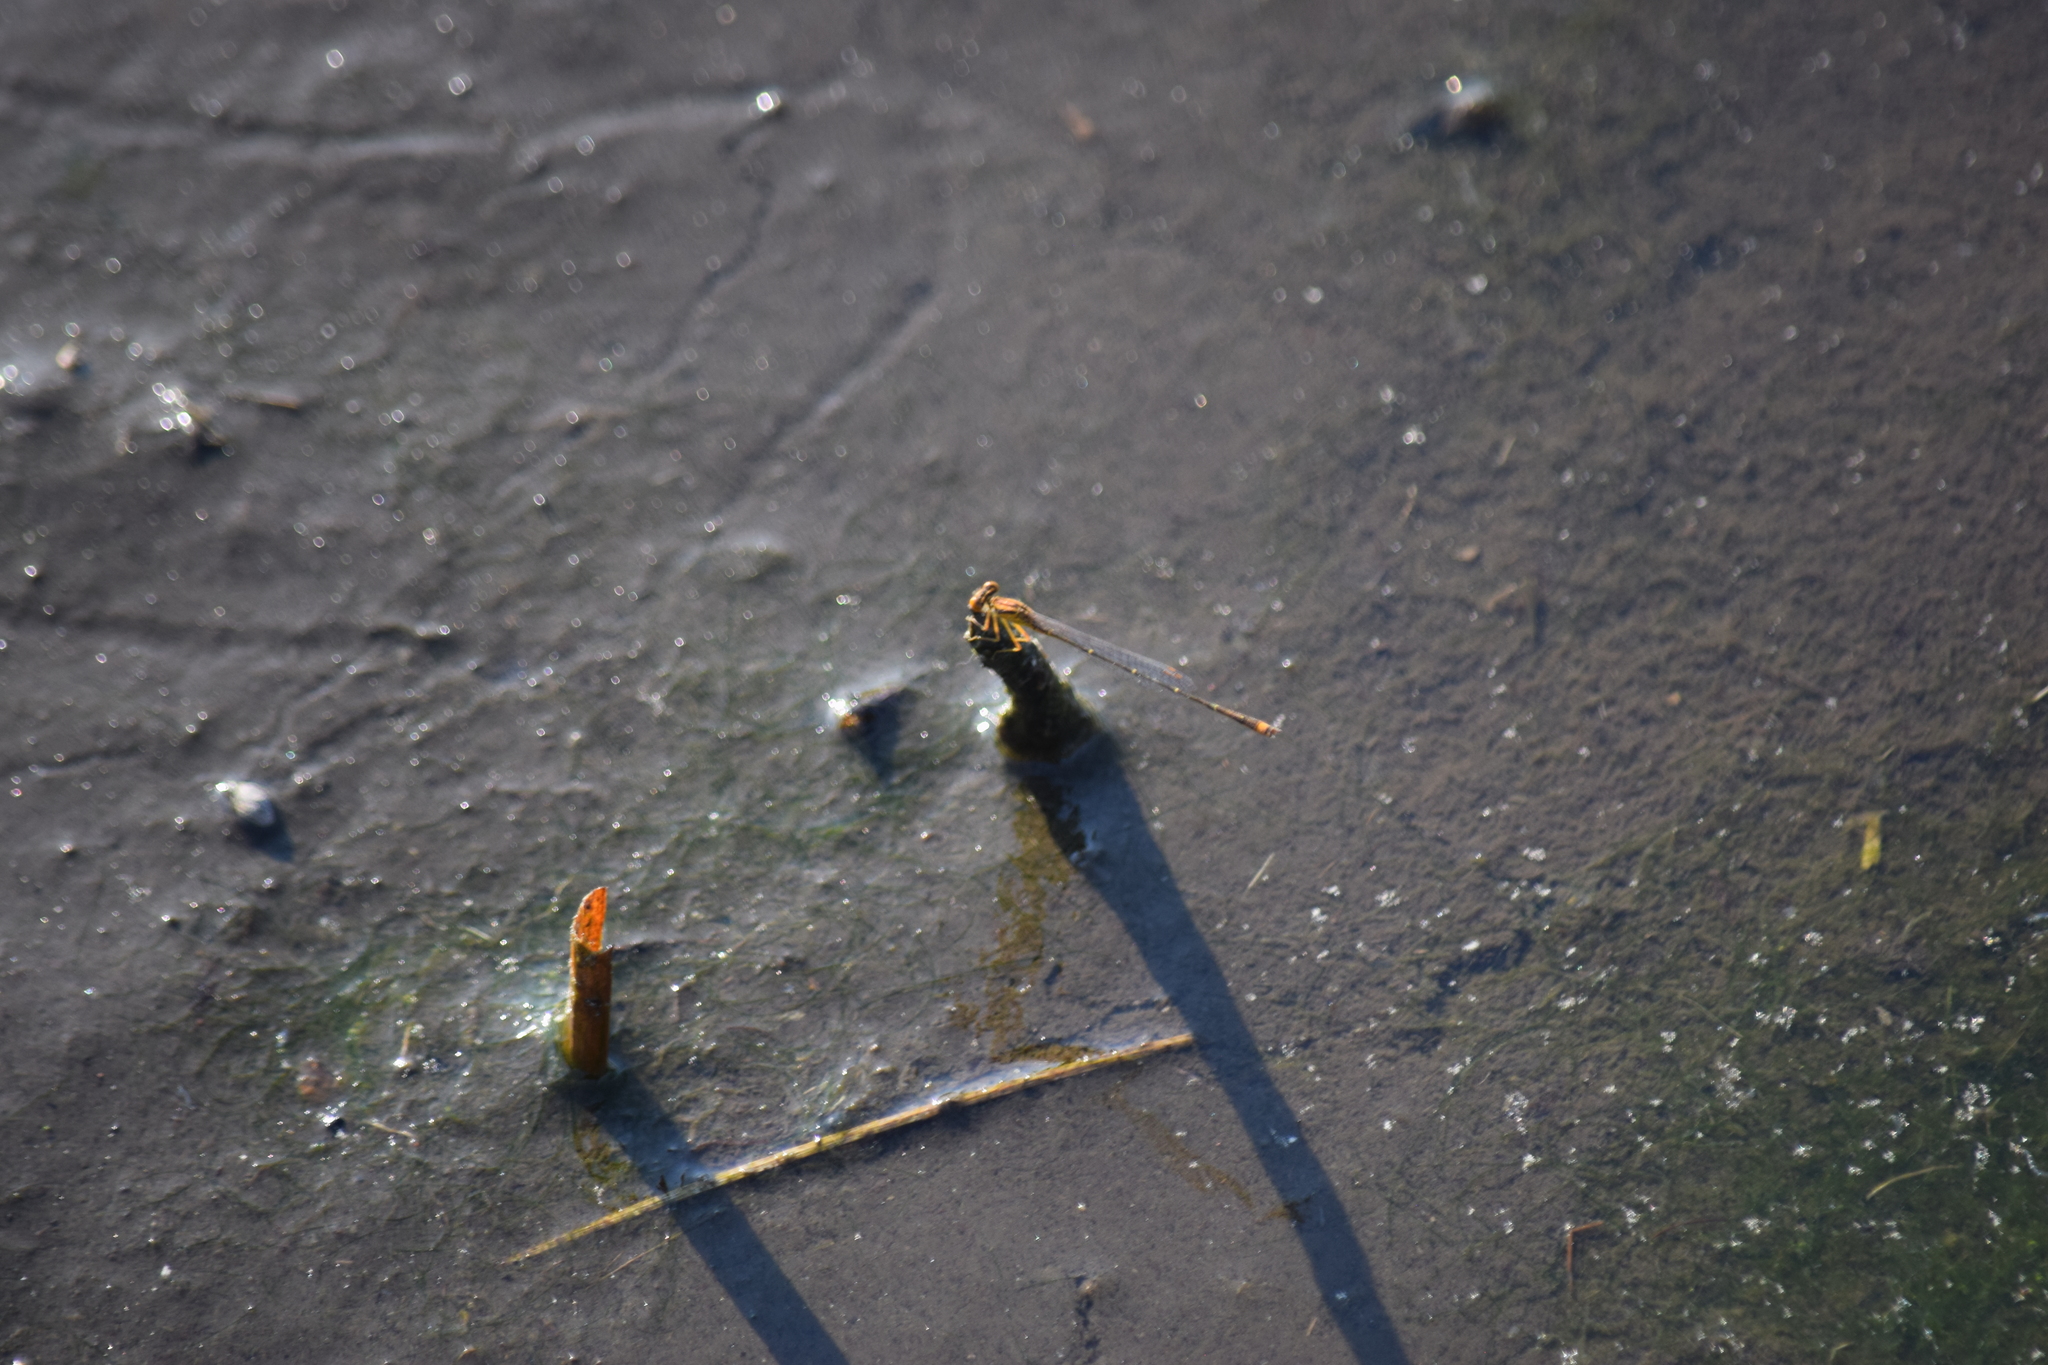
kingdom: Animalia
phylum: Arthropoda
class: Insecta
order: Odonata
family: Coenagrionidae
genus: Enallagma
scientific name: Enallagma signatum
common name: Orange bluet
